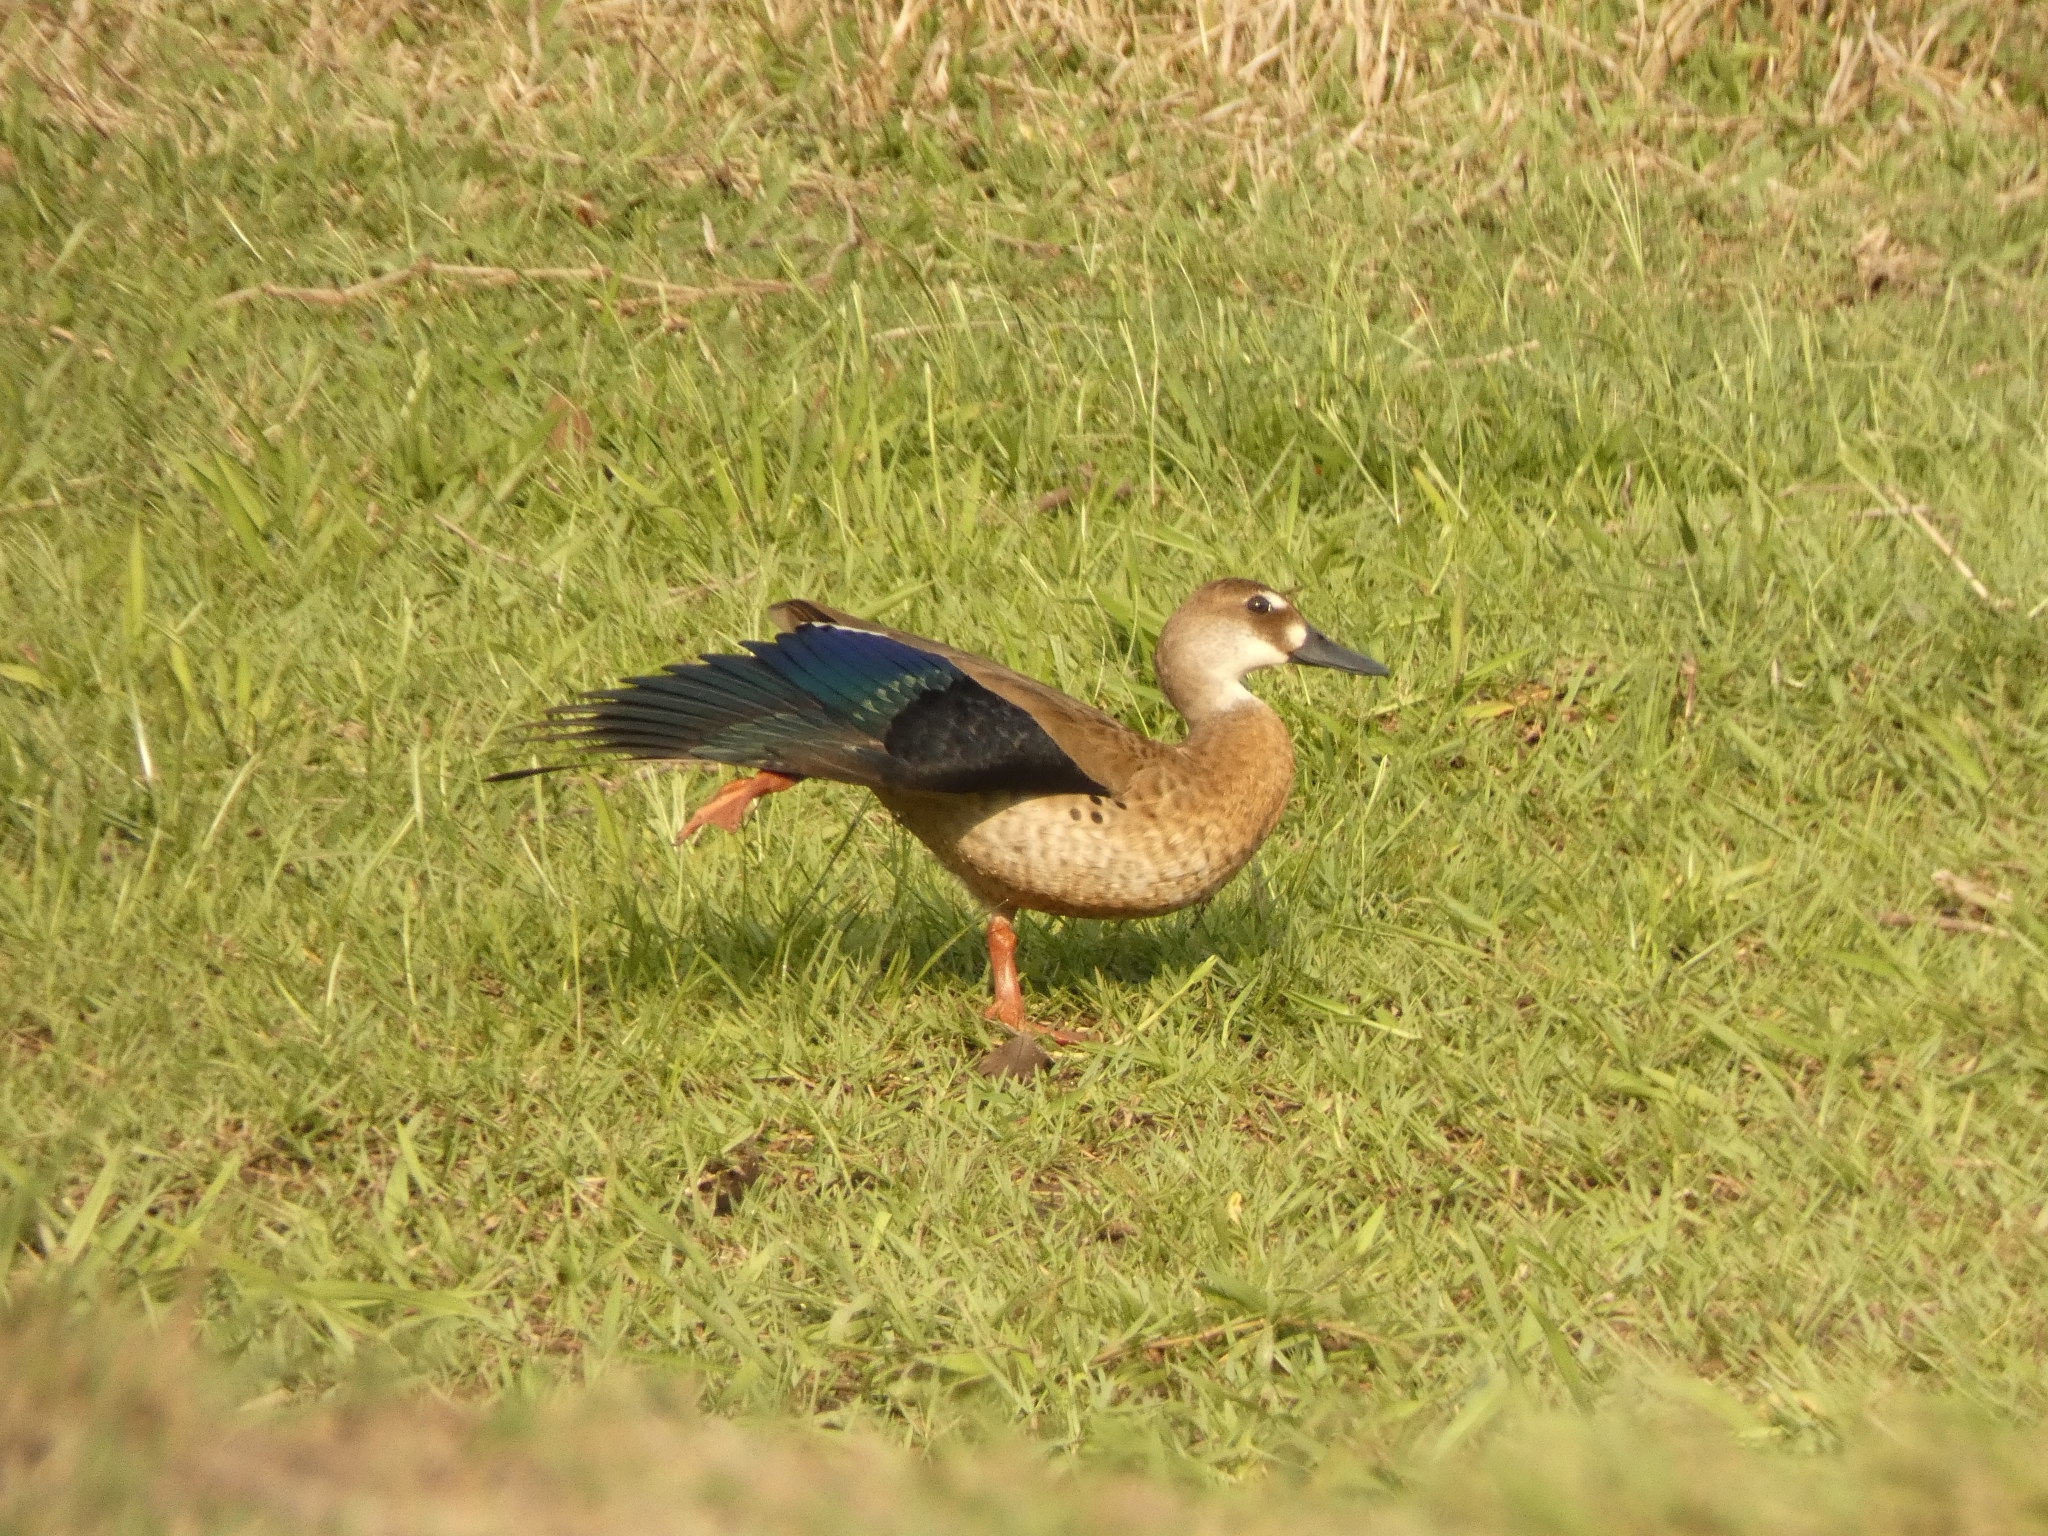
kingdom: Animalia
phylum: Chordata
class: Aves
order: Anseriformes
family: Anatidae
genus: Amazonetta
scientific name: Amazonetta brasiliensis
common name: Brazilian teal
